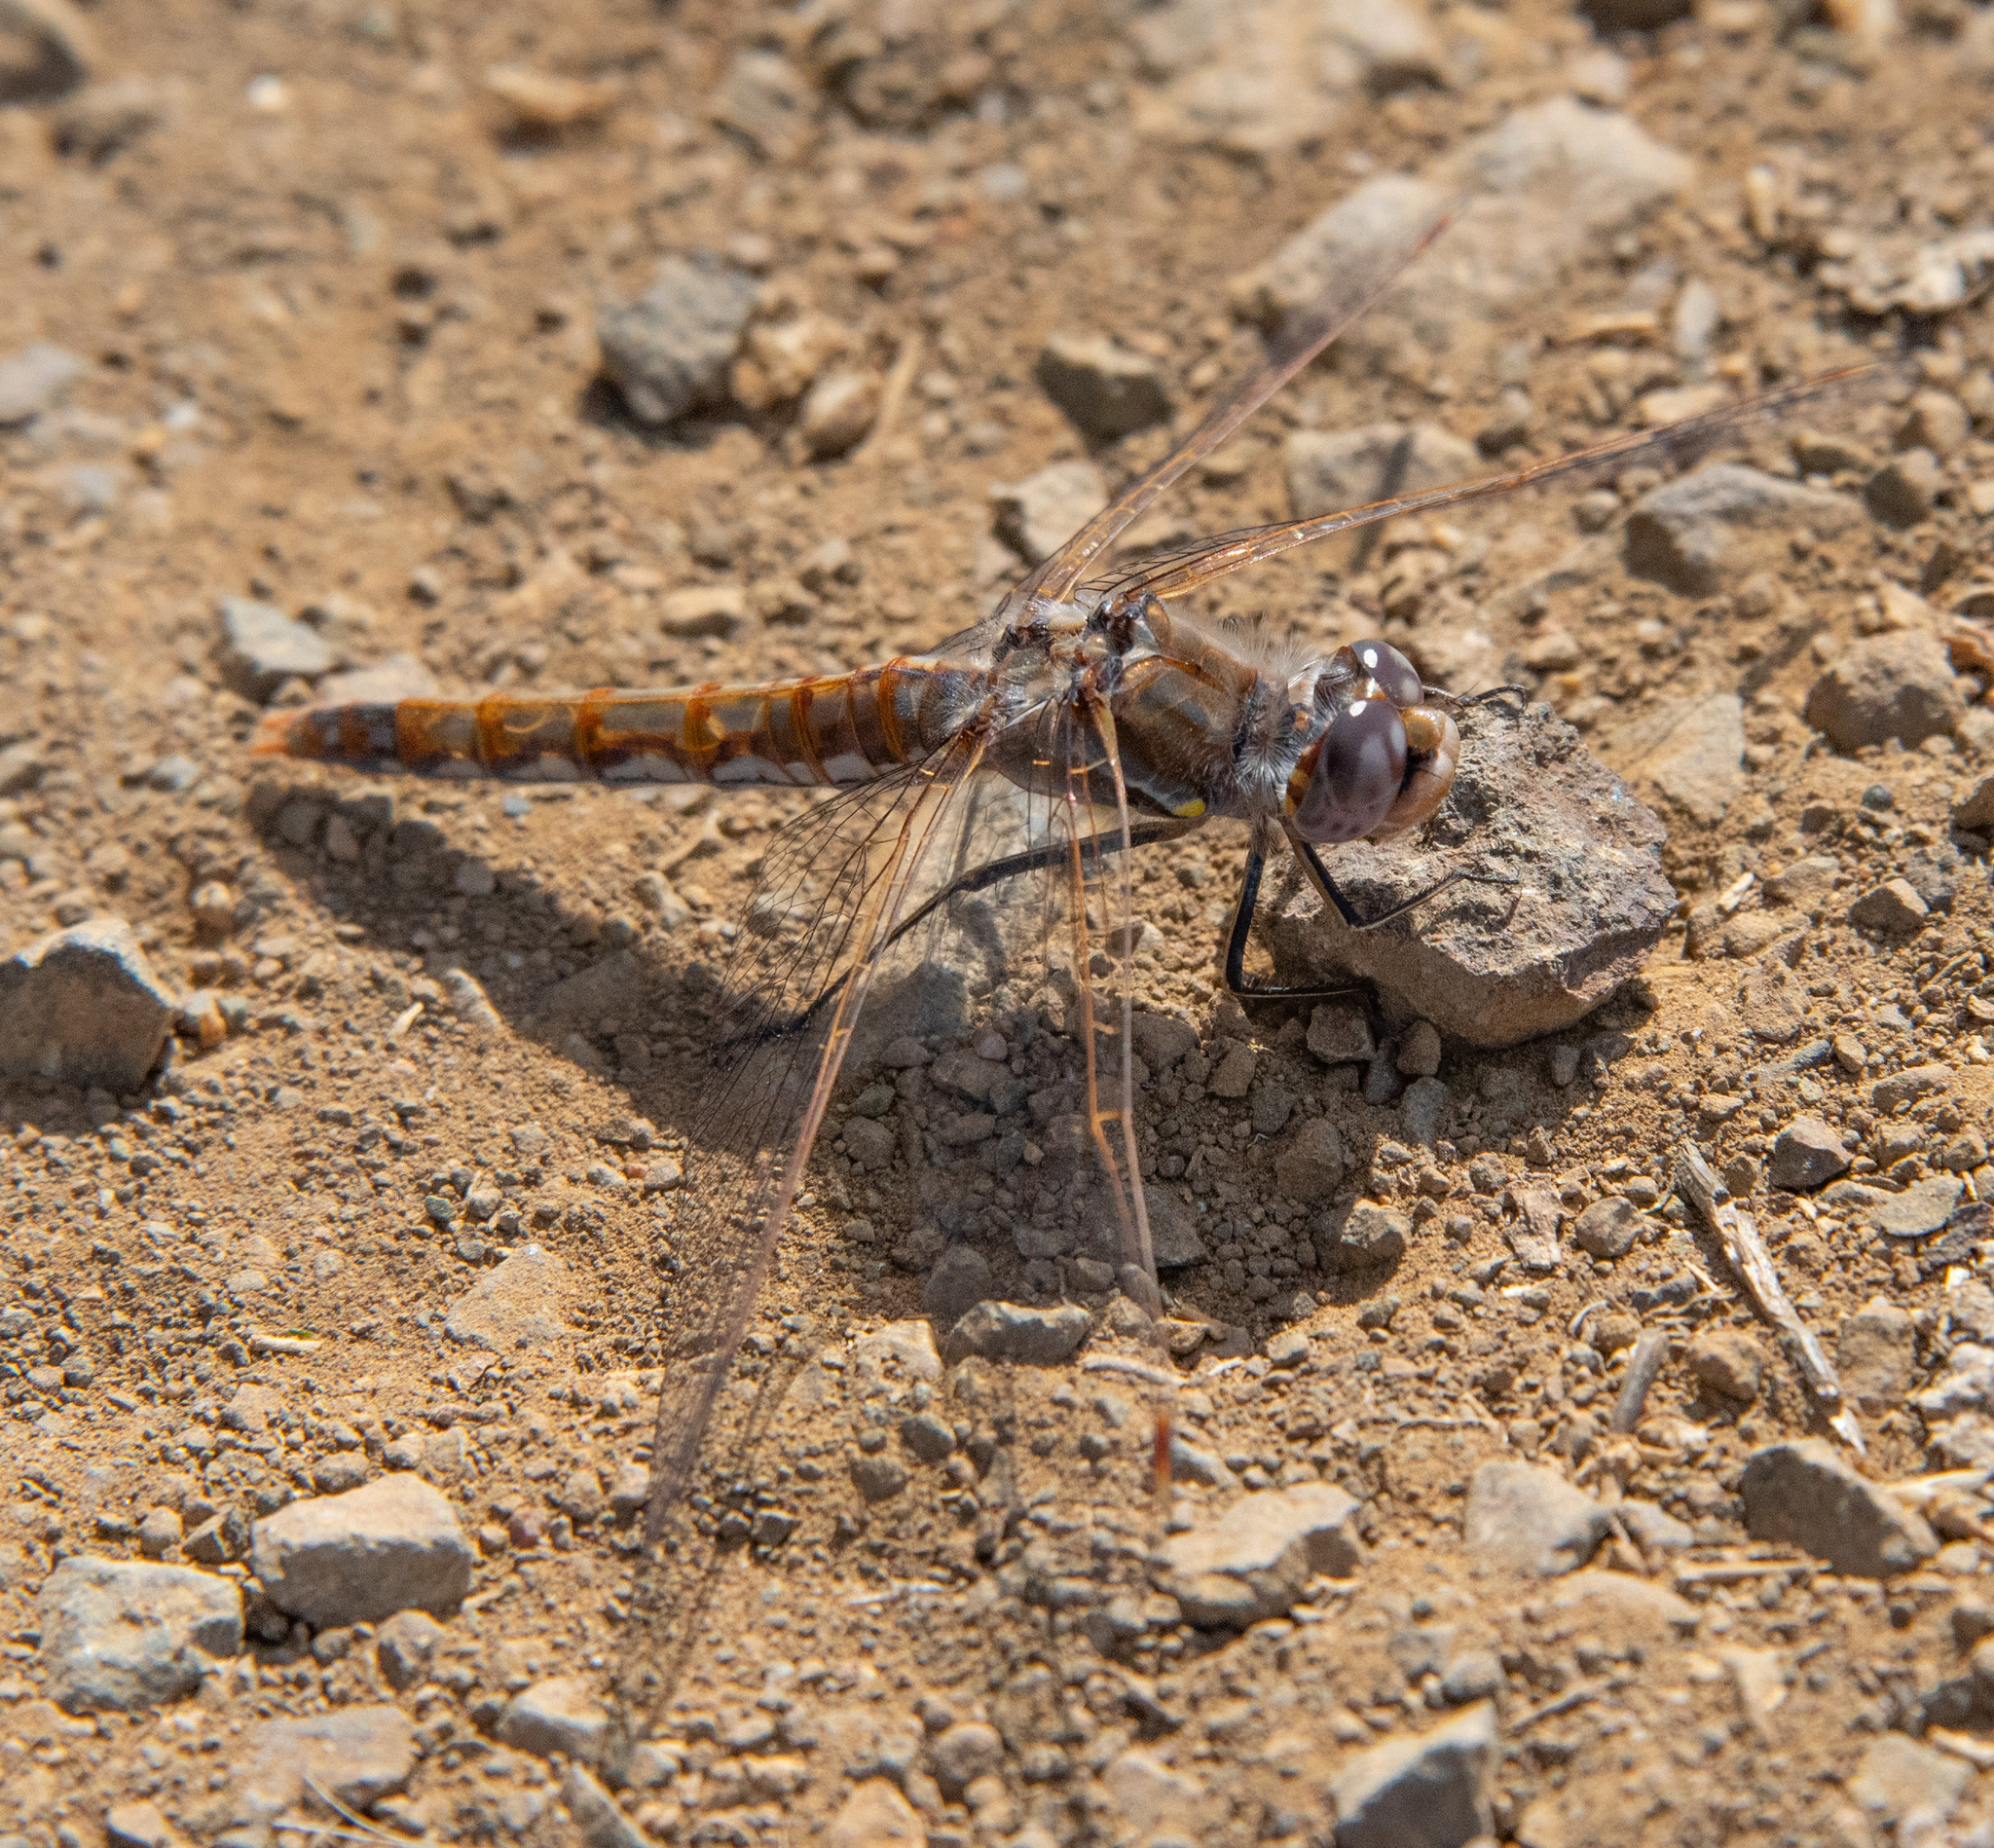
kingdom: Animalia
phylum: Arthropoda
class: Insecta
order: Odonata
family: Libellulidae
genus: Sympetrum
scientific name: Sympetrum corruptum
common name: Variegated meadowhawk
